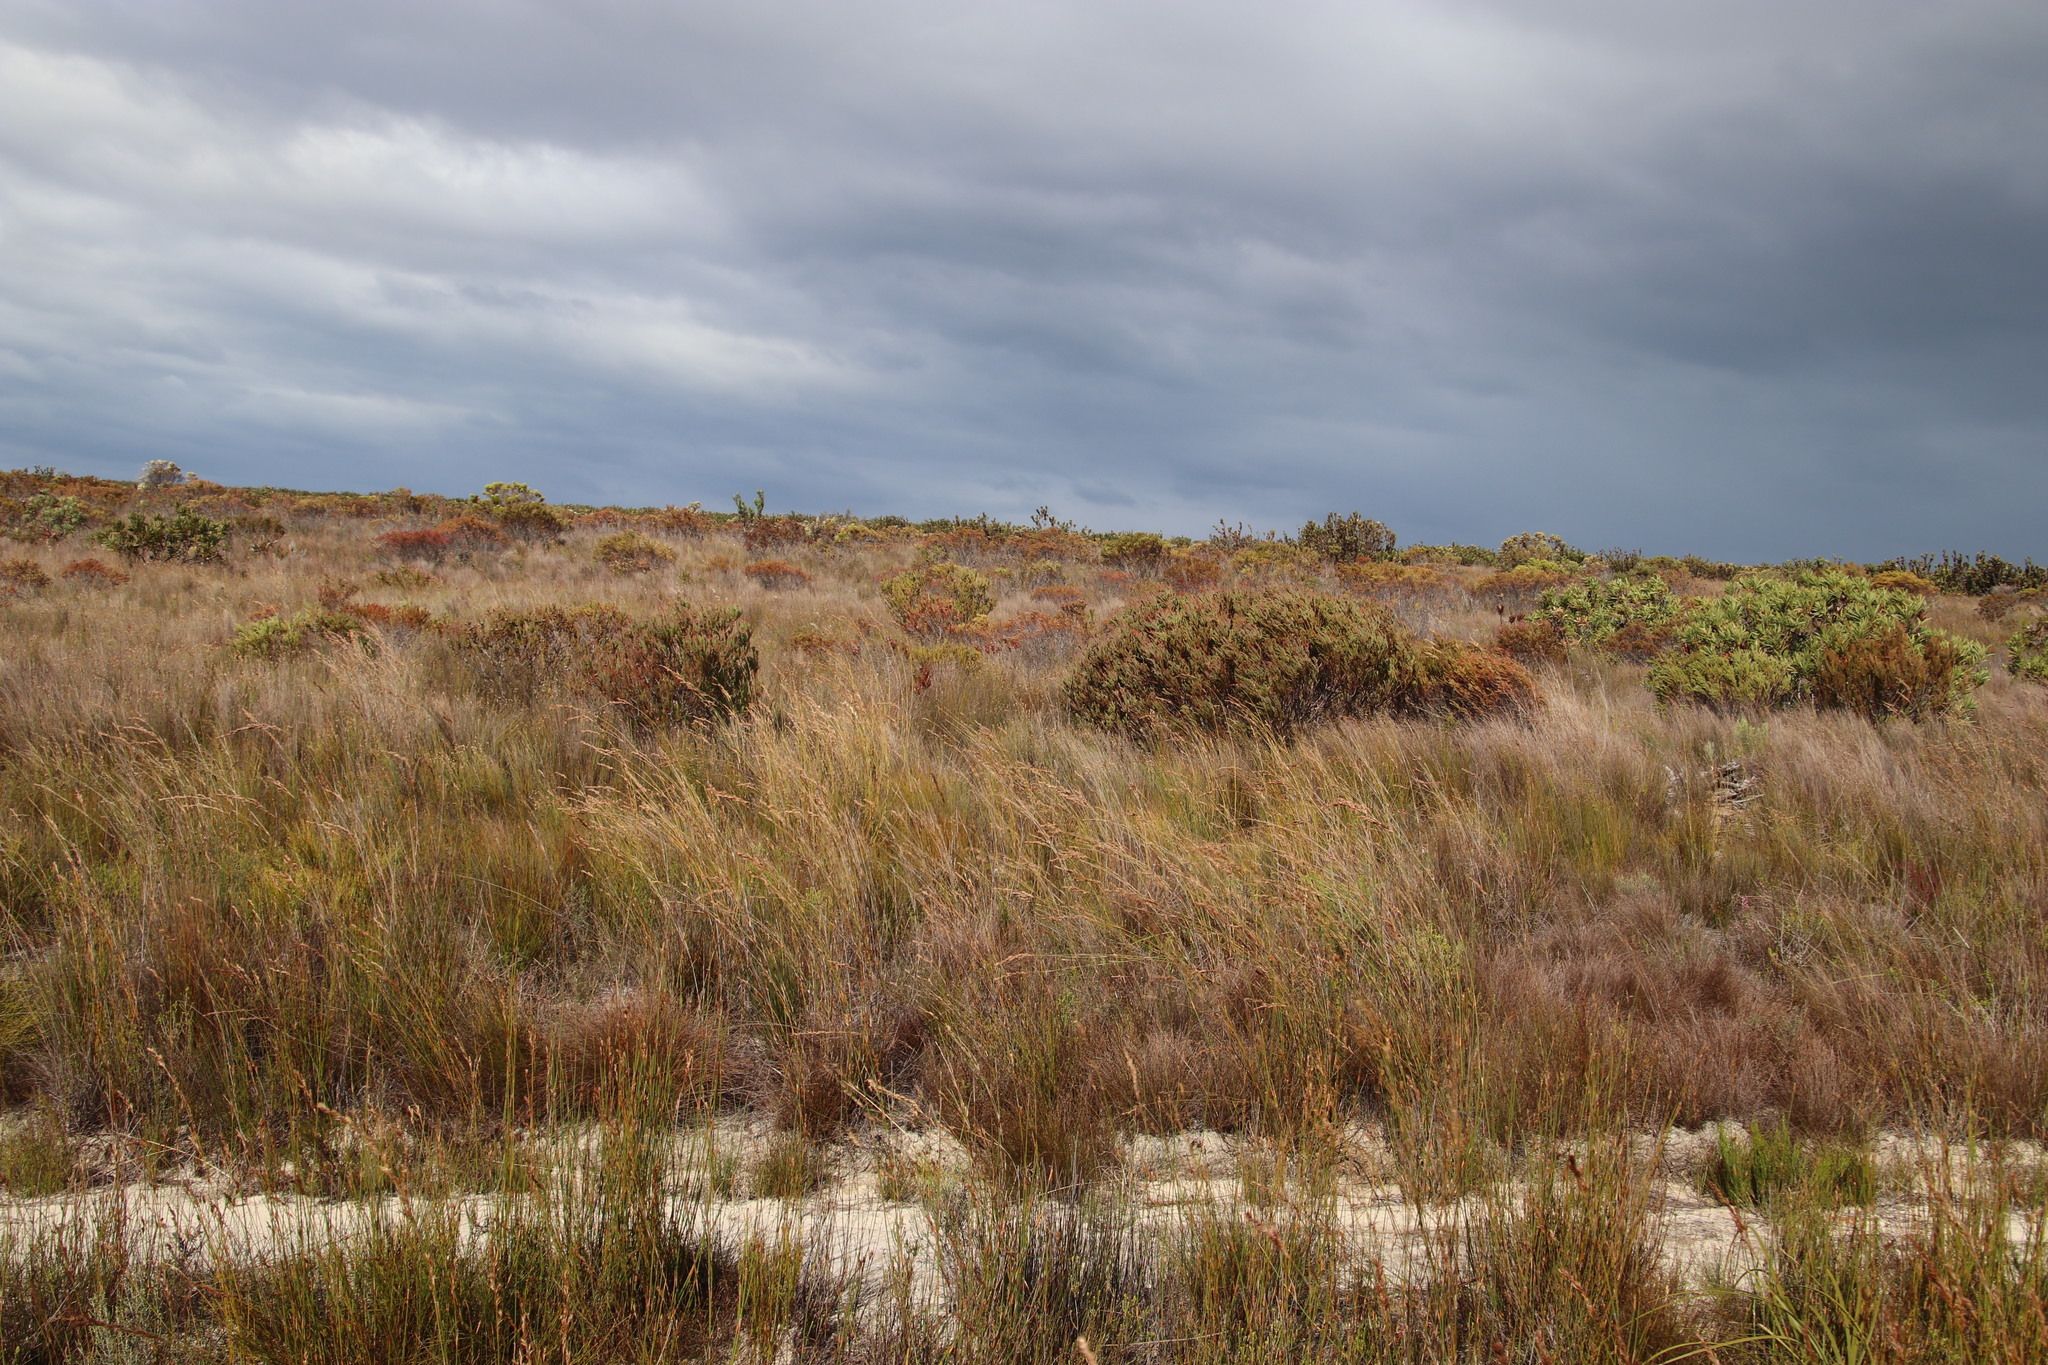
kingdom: Plantae
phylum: Tracheophyta
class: Magnoliopsida
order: Proteales
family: Proteaceae
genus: Leucadendron
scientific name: Leucadendron linifolium
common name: Line-leaf conebush
